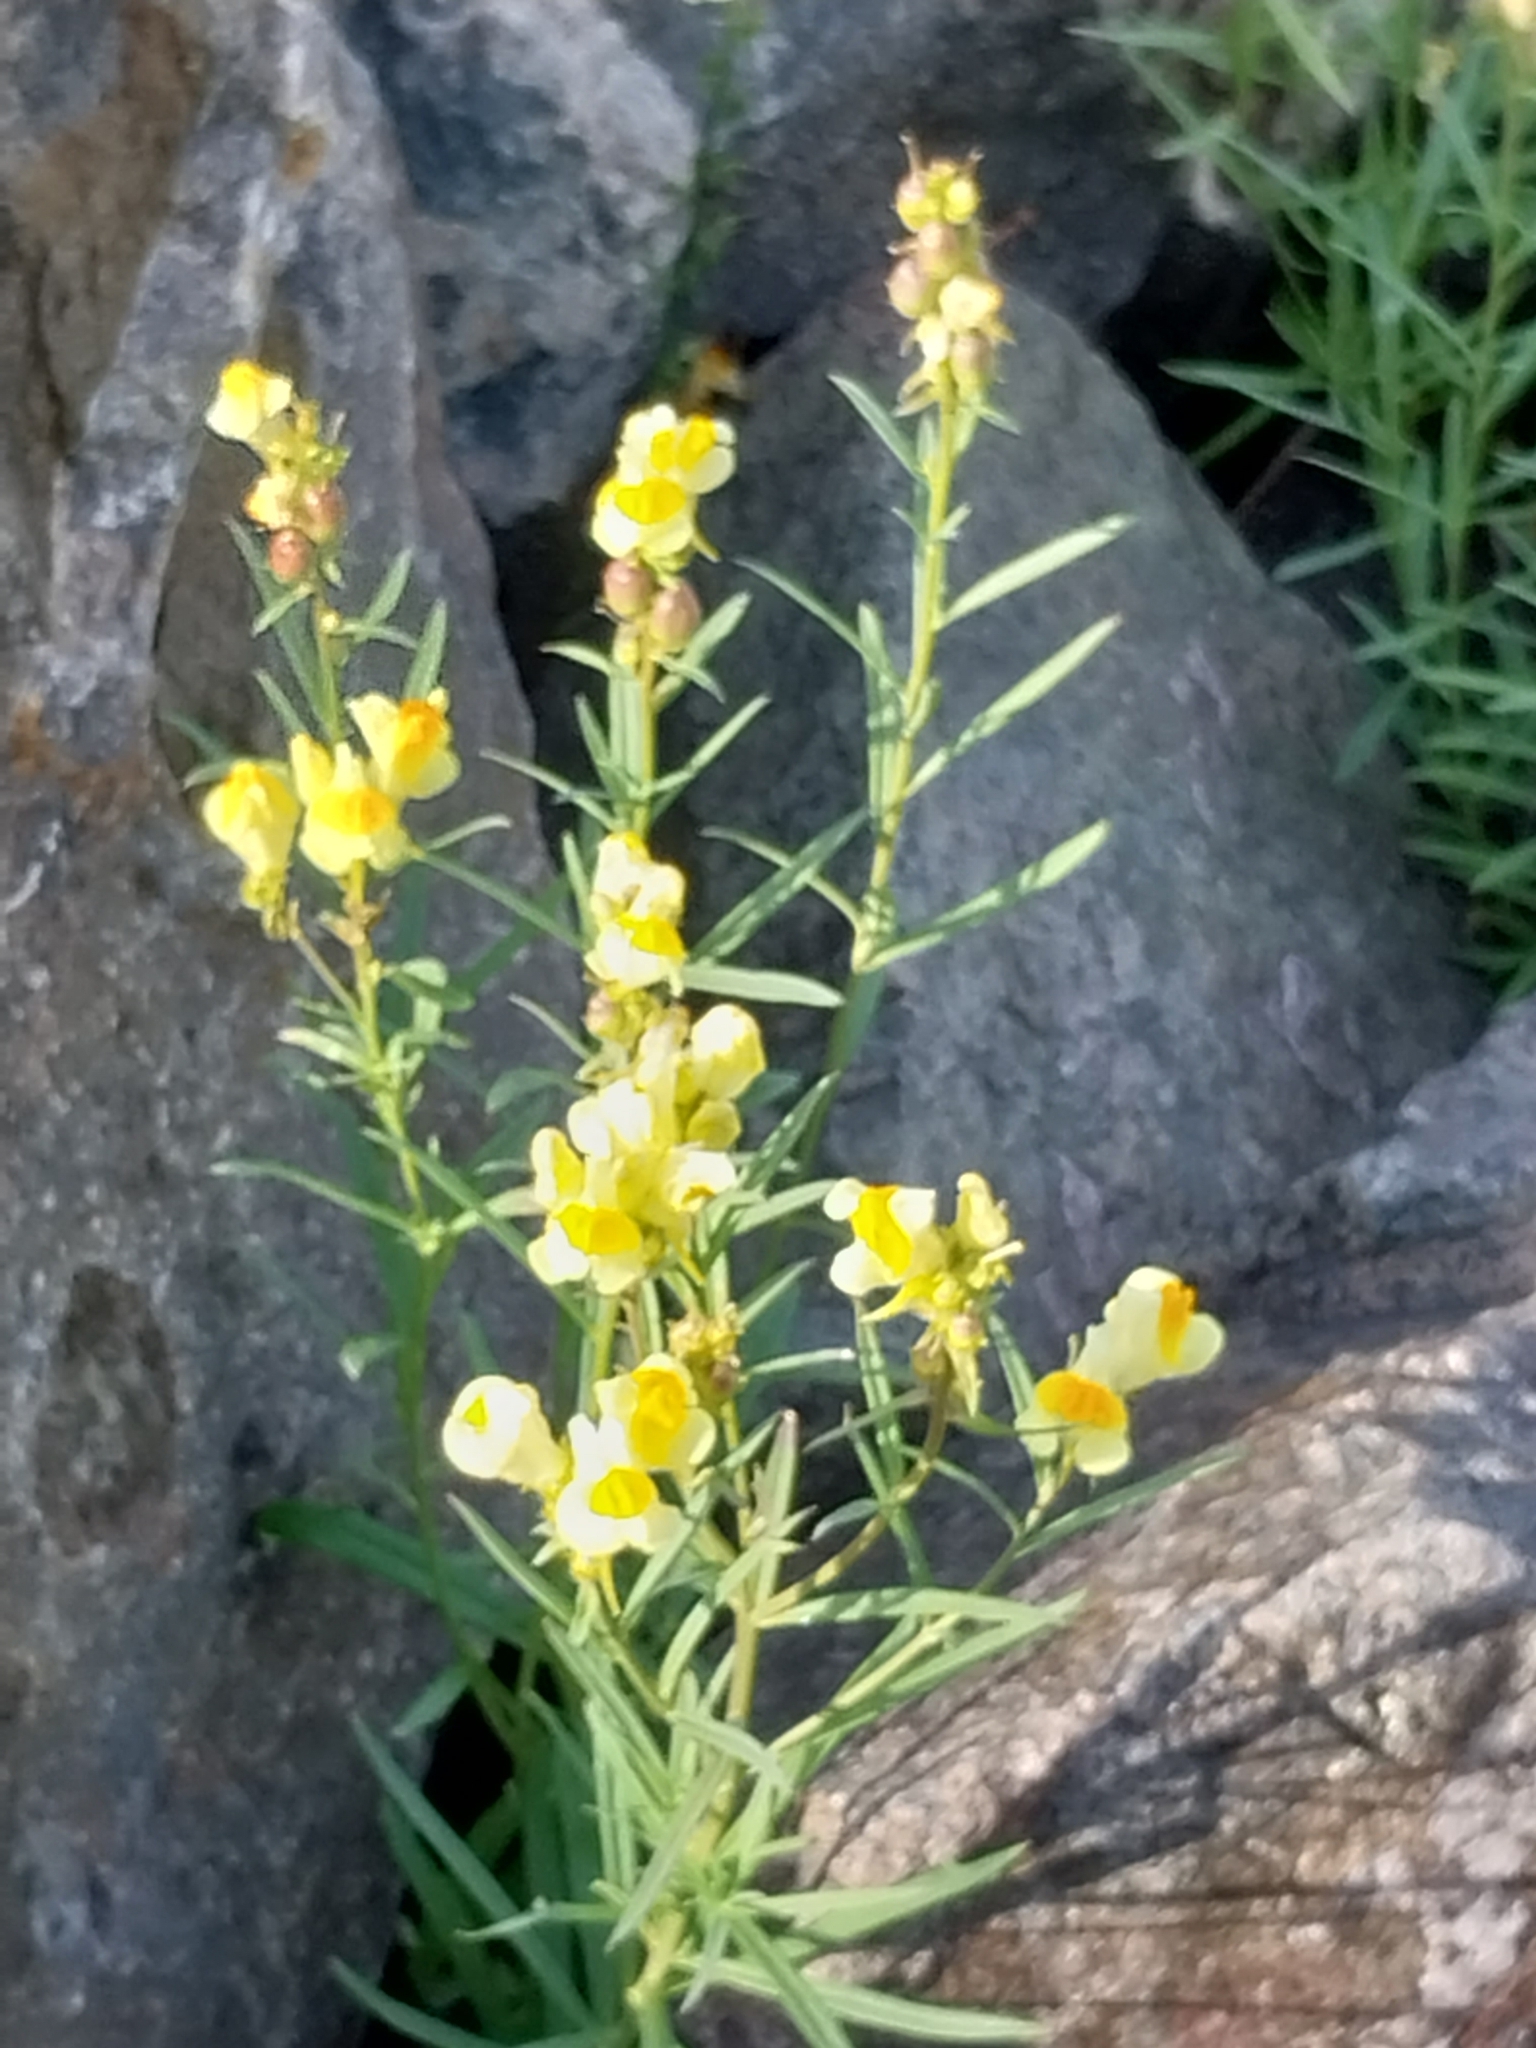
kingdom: Plantae
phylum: Tracheophyta
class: Magnoliopsida
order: Lamiales
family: Plantaginaceae
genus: Linaria
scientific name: Linaria vulgaris
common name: Butter and eggs
